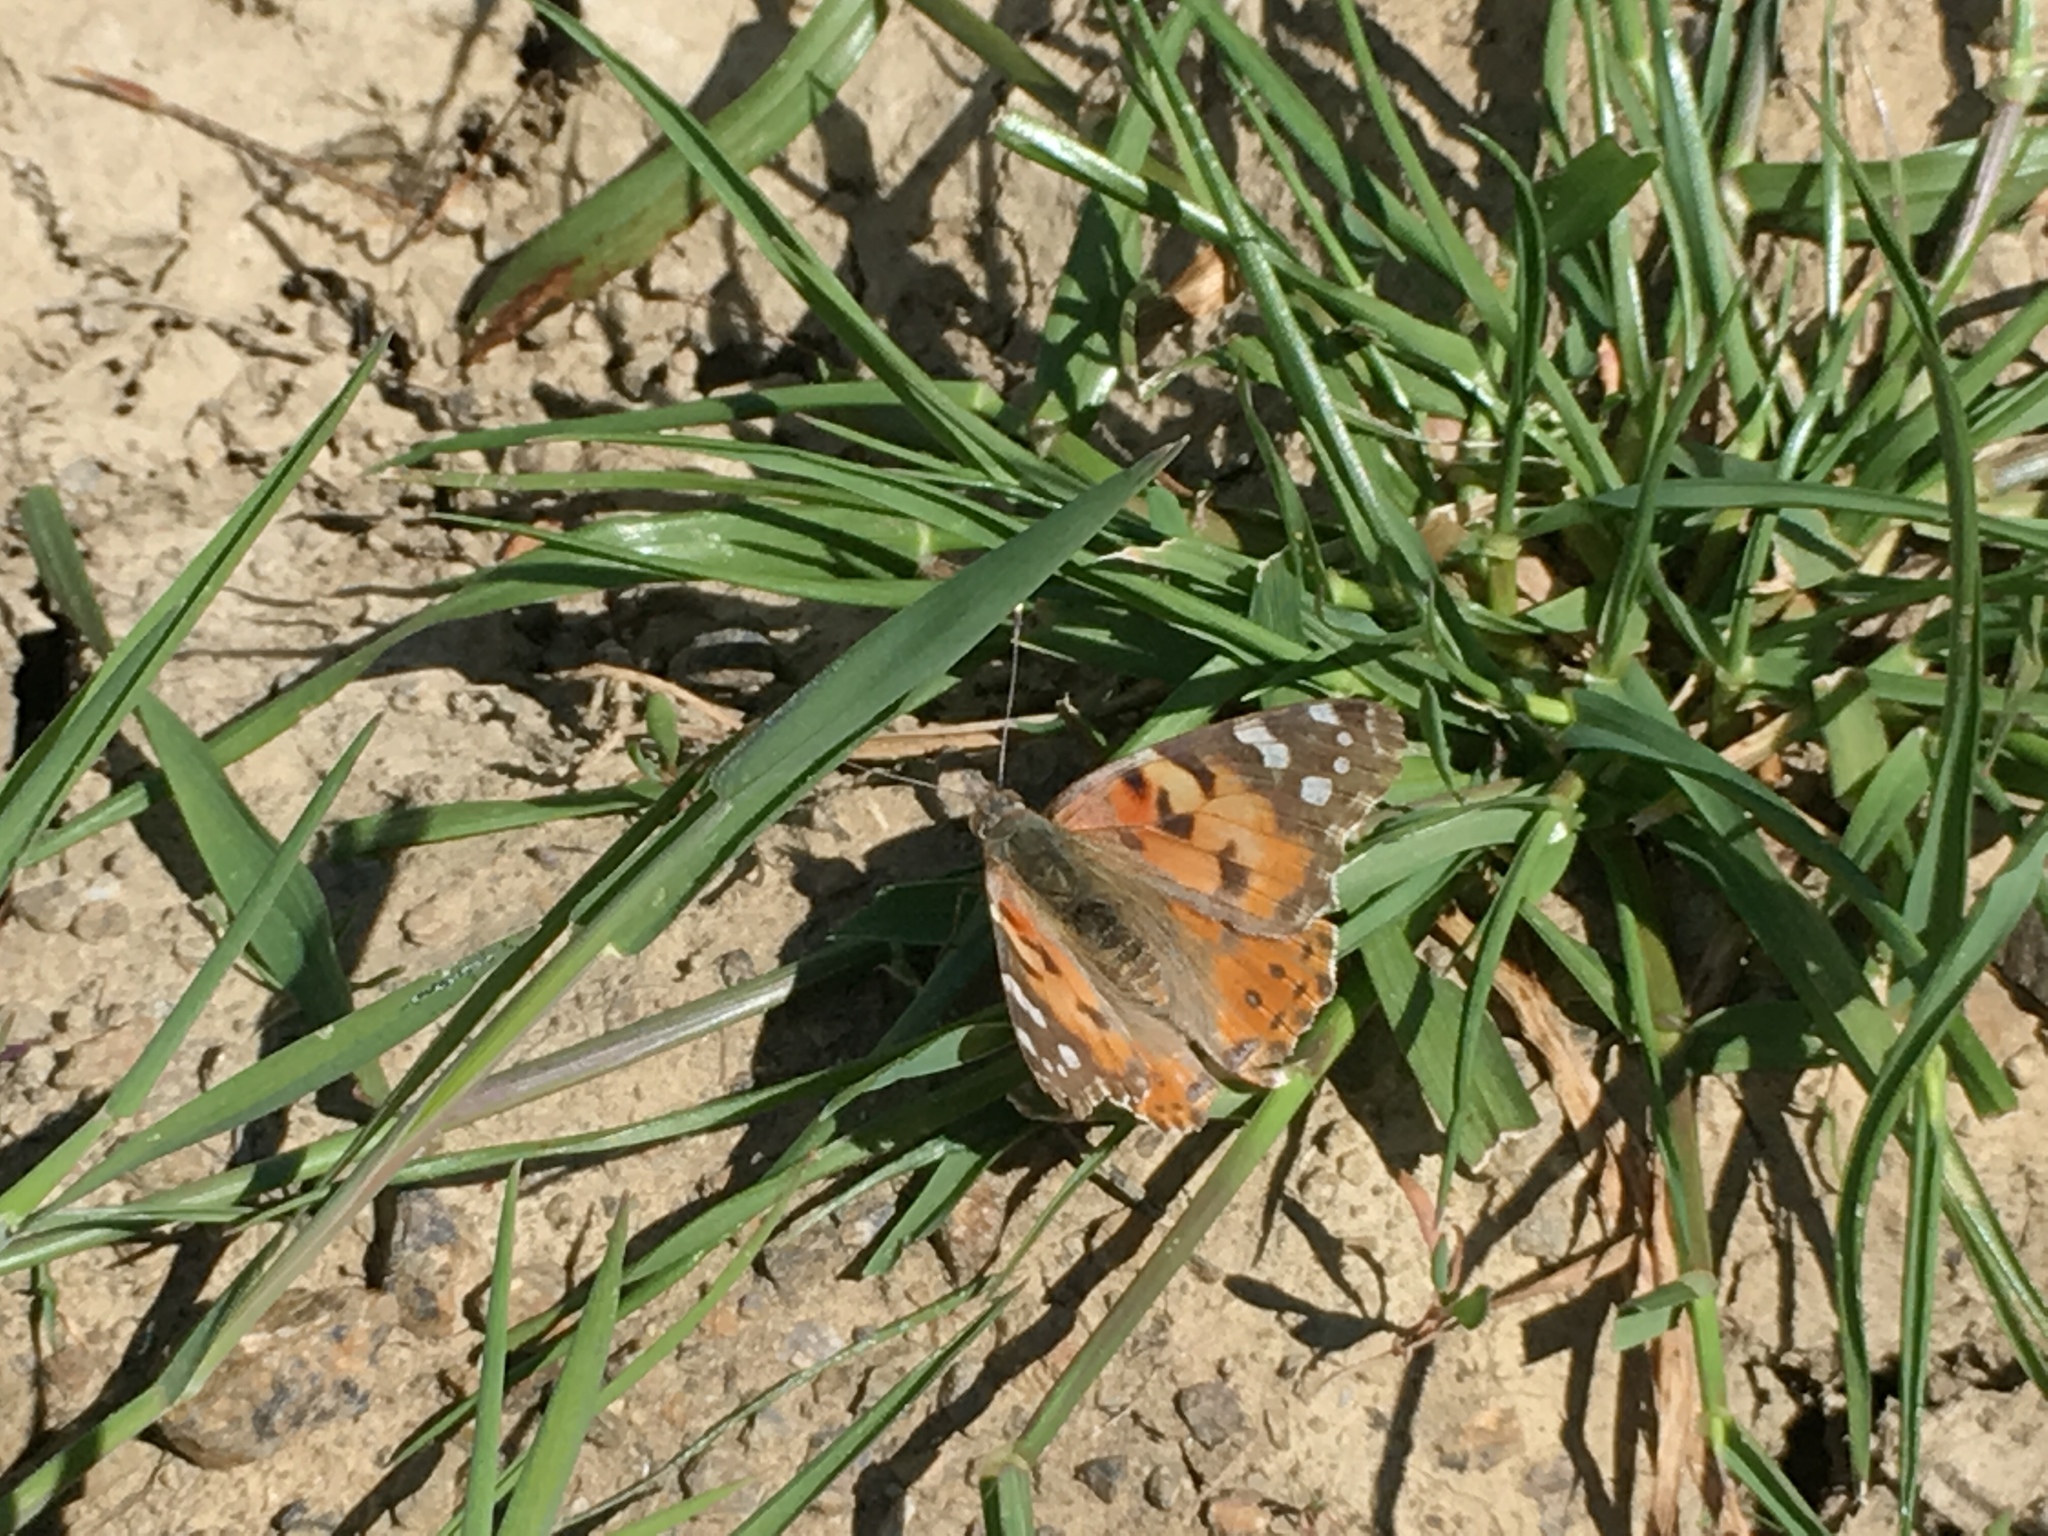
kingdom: Animalia
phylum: Arthropoda
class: Insecta
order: Lepidoptera
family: Nymphalidae
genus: Vanessa
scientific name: Vanessa cardui
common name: Painted lady
